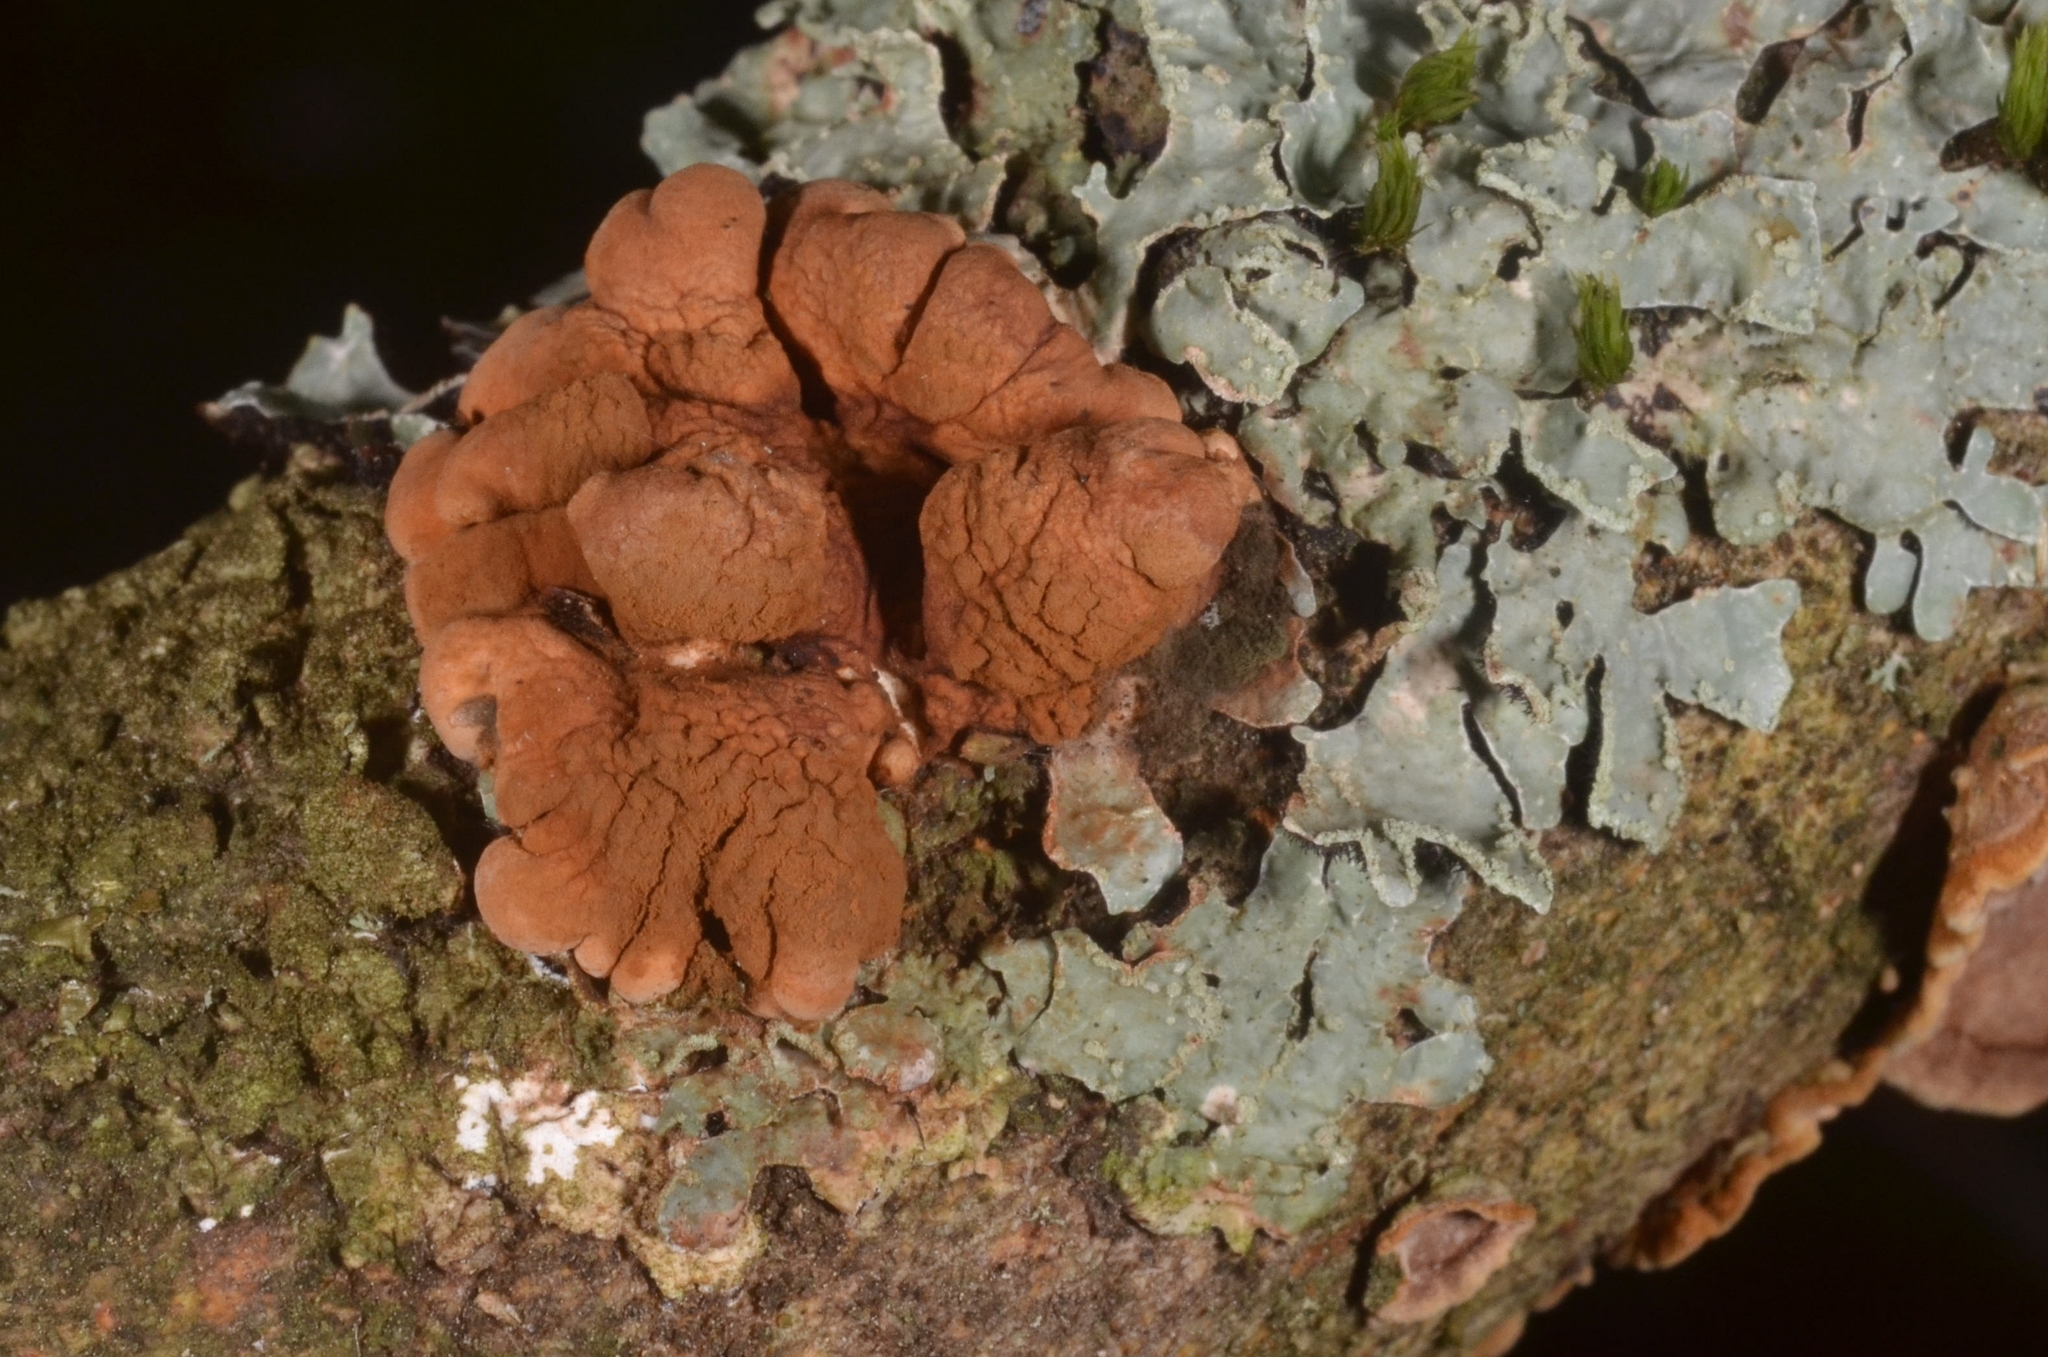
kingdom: Fungi
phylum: Ascomycota
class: Sordariomycetes
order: Hypocreales
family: Hypocreaceae
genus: Hypocreopsis
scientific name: Hypocreopsis lichenoides
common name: Willow gloves
